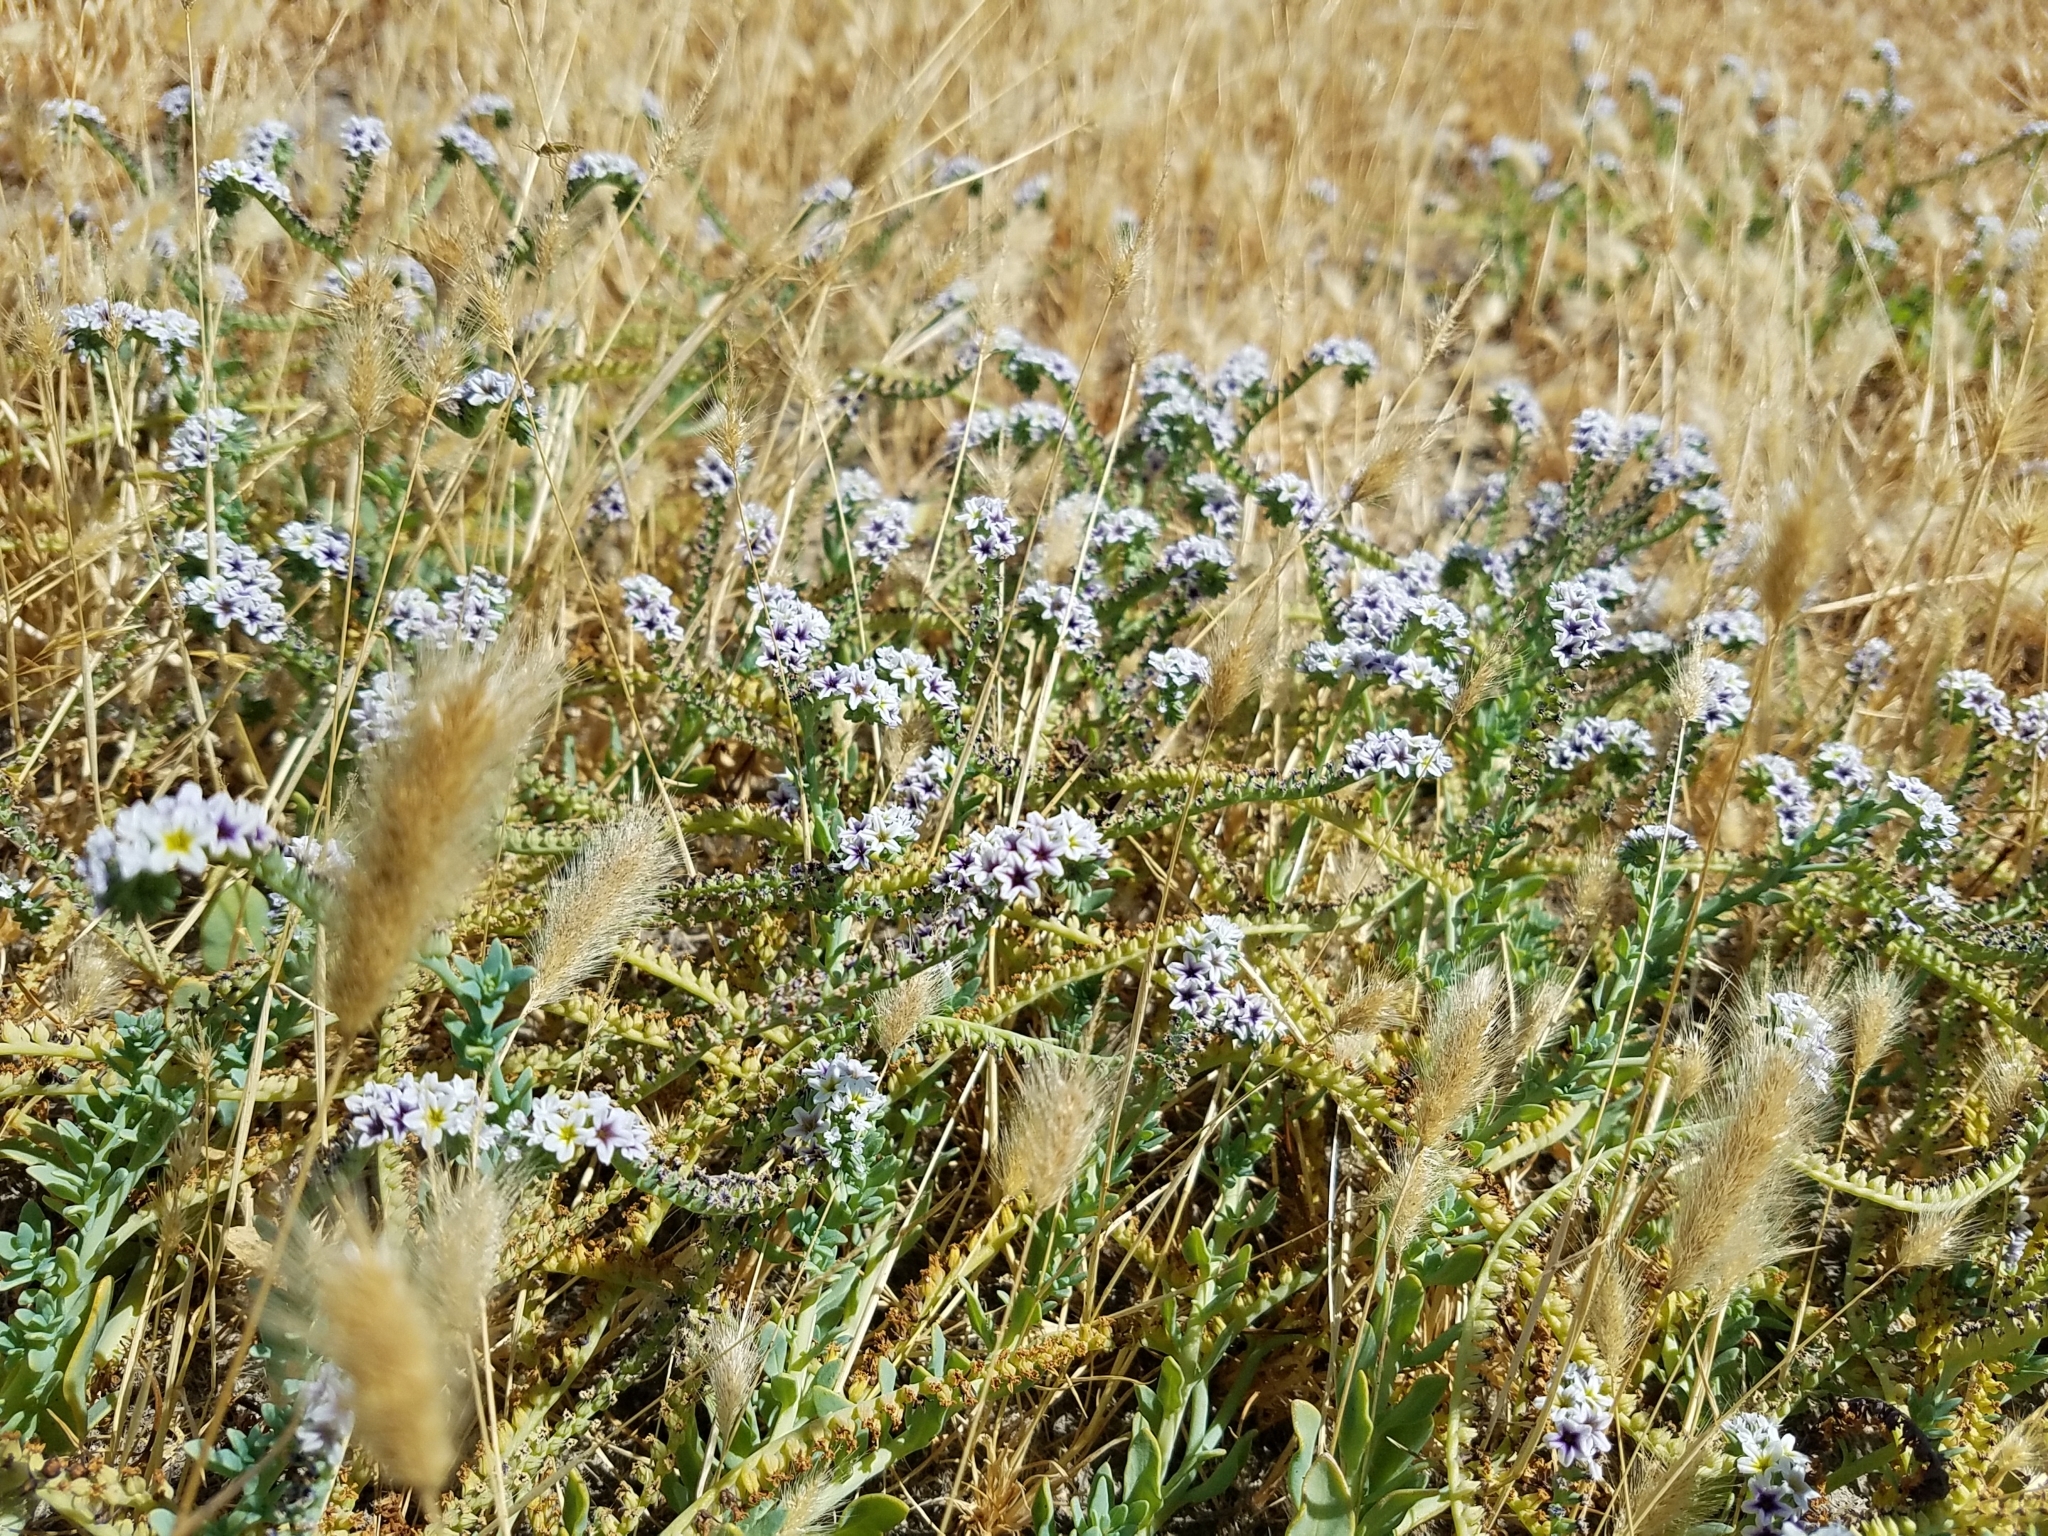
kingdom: Plantae
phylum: Tracheophyta
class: Magnoliopsida
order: Boraginales
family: Heliotropiaceae
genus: Heliotropium
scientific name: Heliotropium curassavicum
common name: Seaside heliotrope
